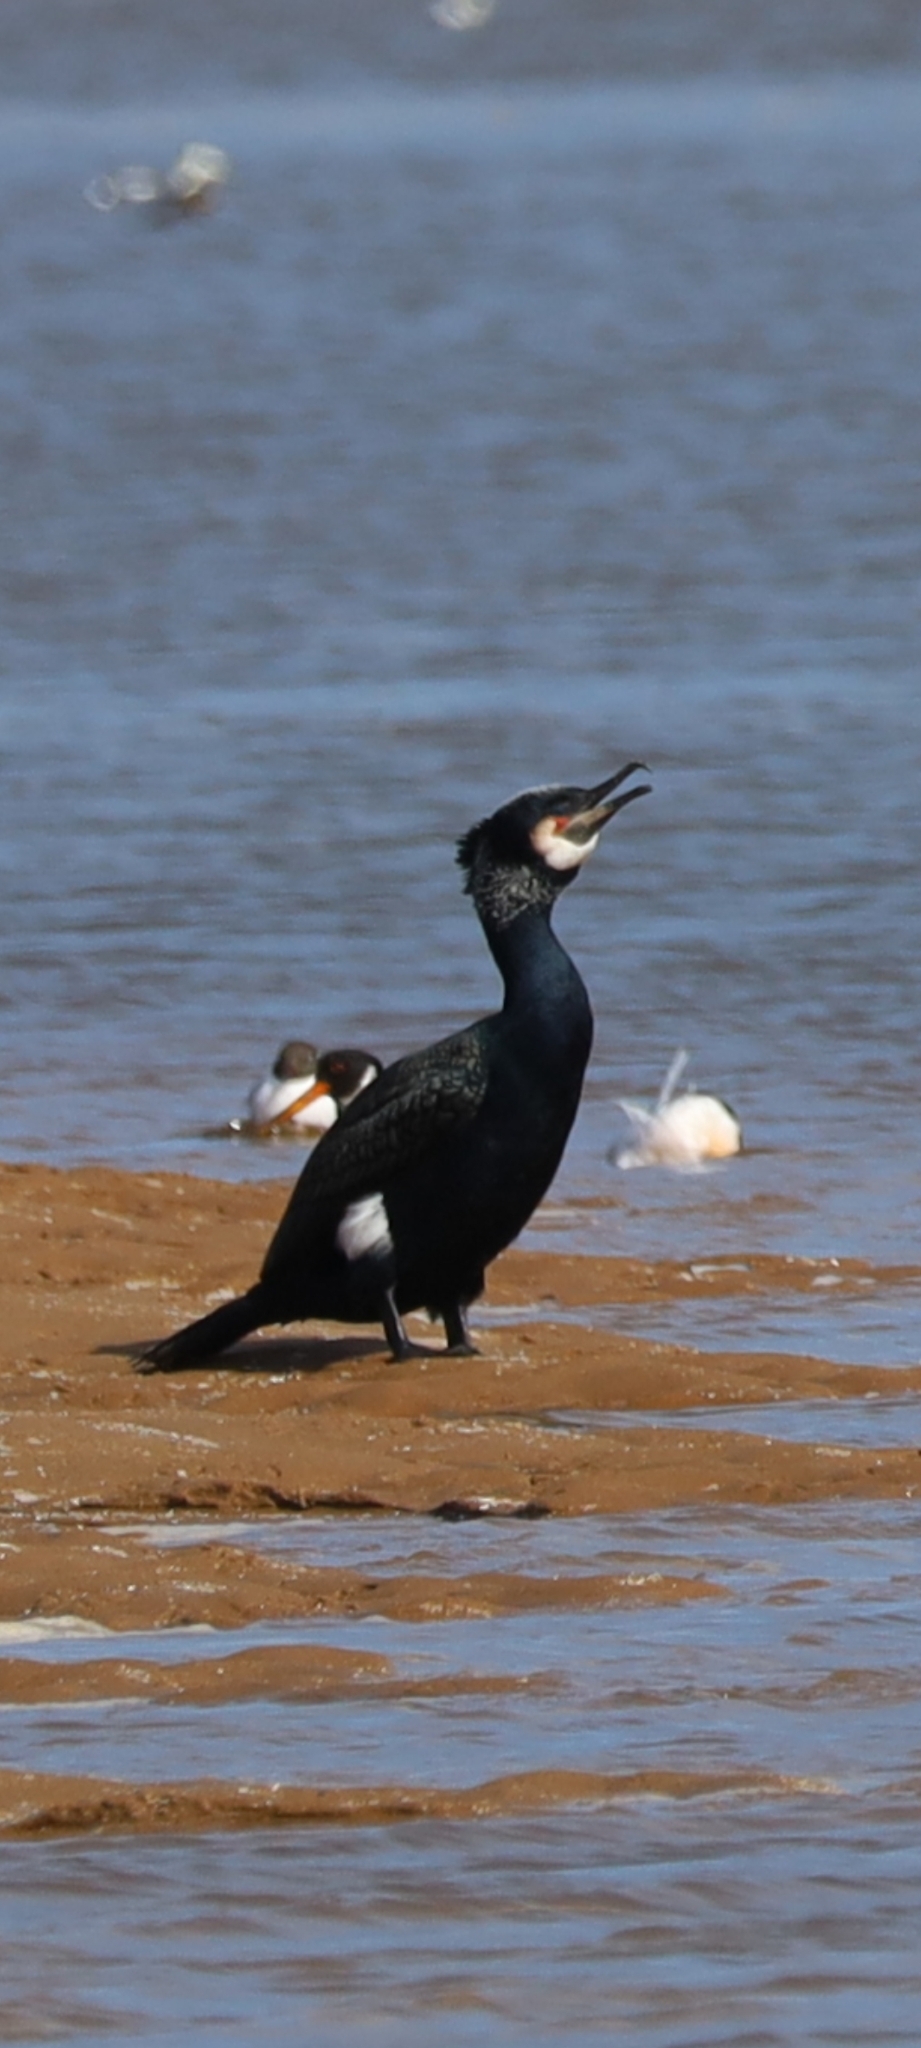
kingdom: Animalia
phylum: Chordata
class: Aves
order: Suliformes
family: Phalacrocoracidae
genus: Phalacrocorax
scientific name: Phalacrocorax carbo
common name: Great cormorant
